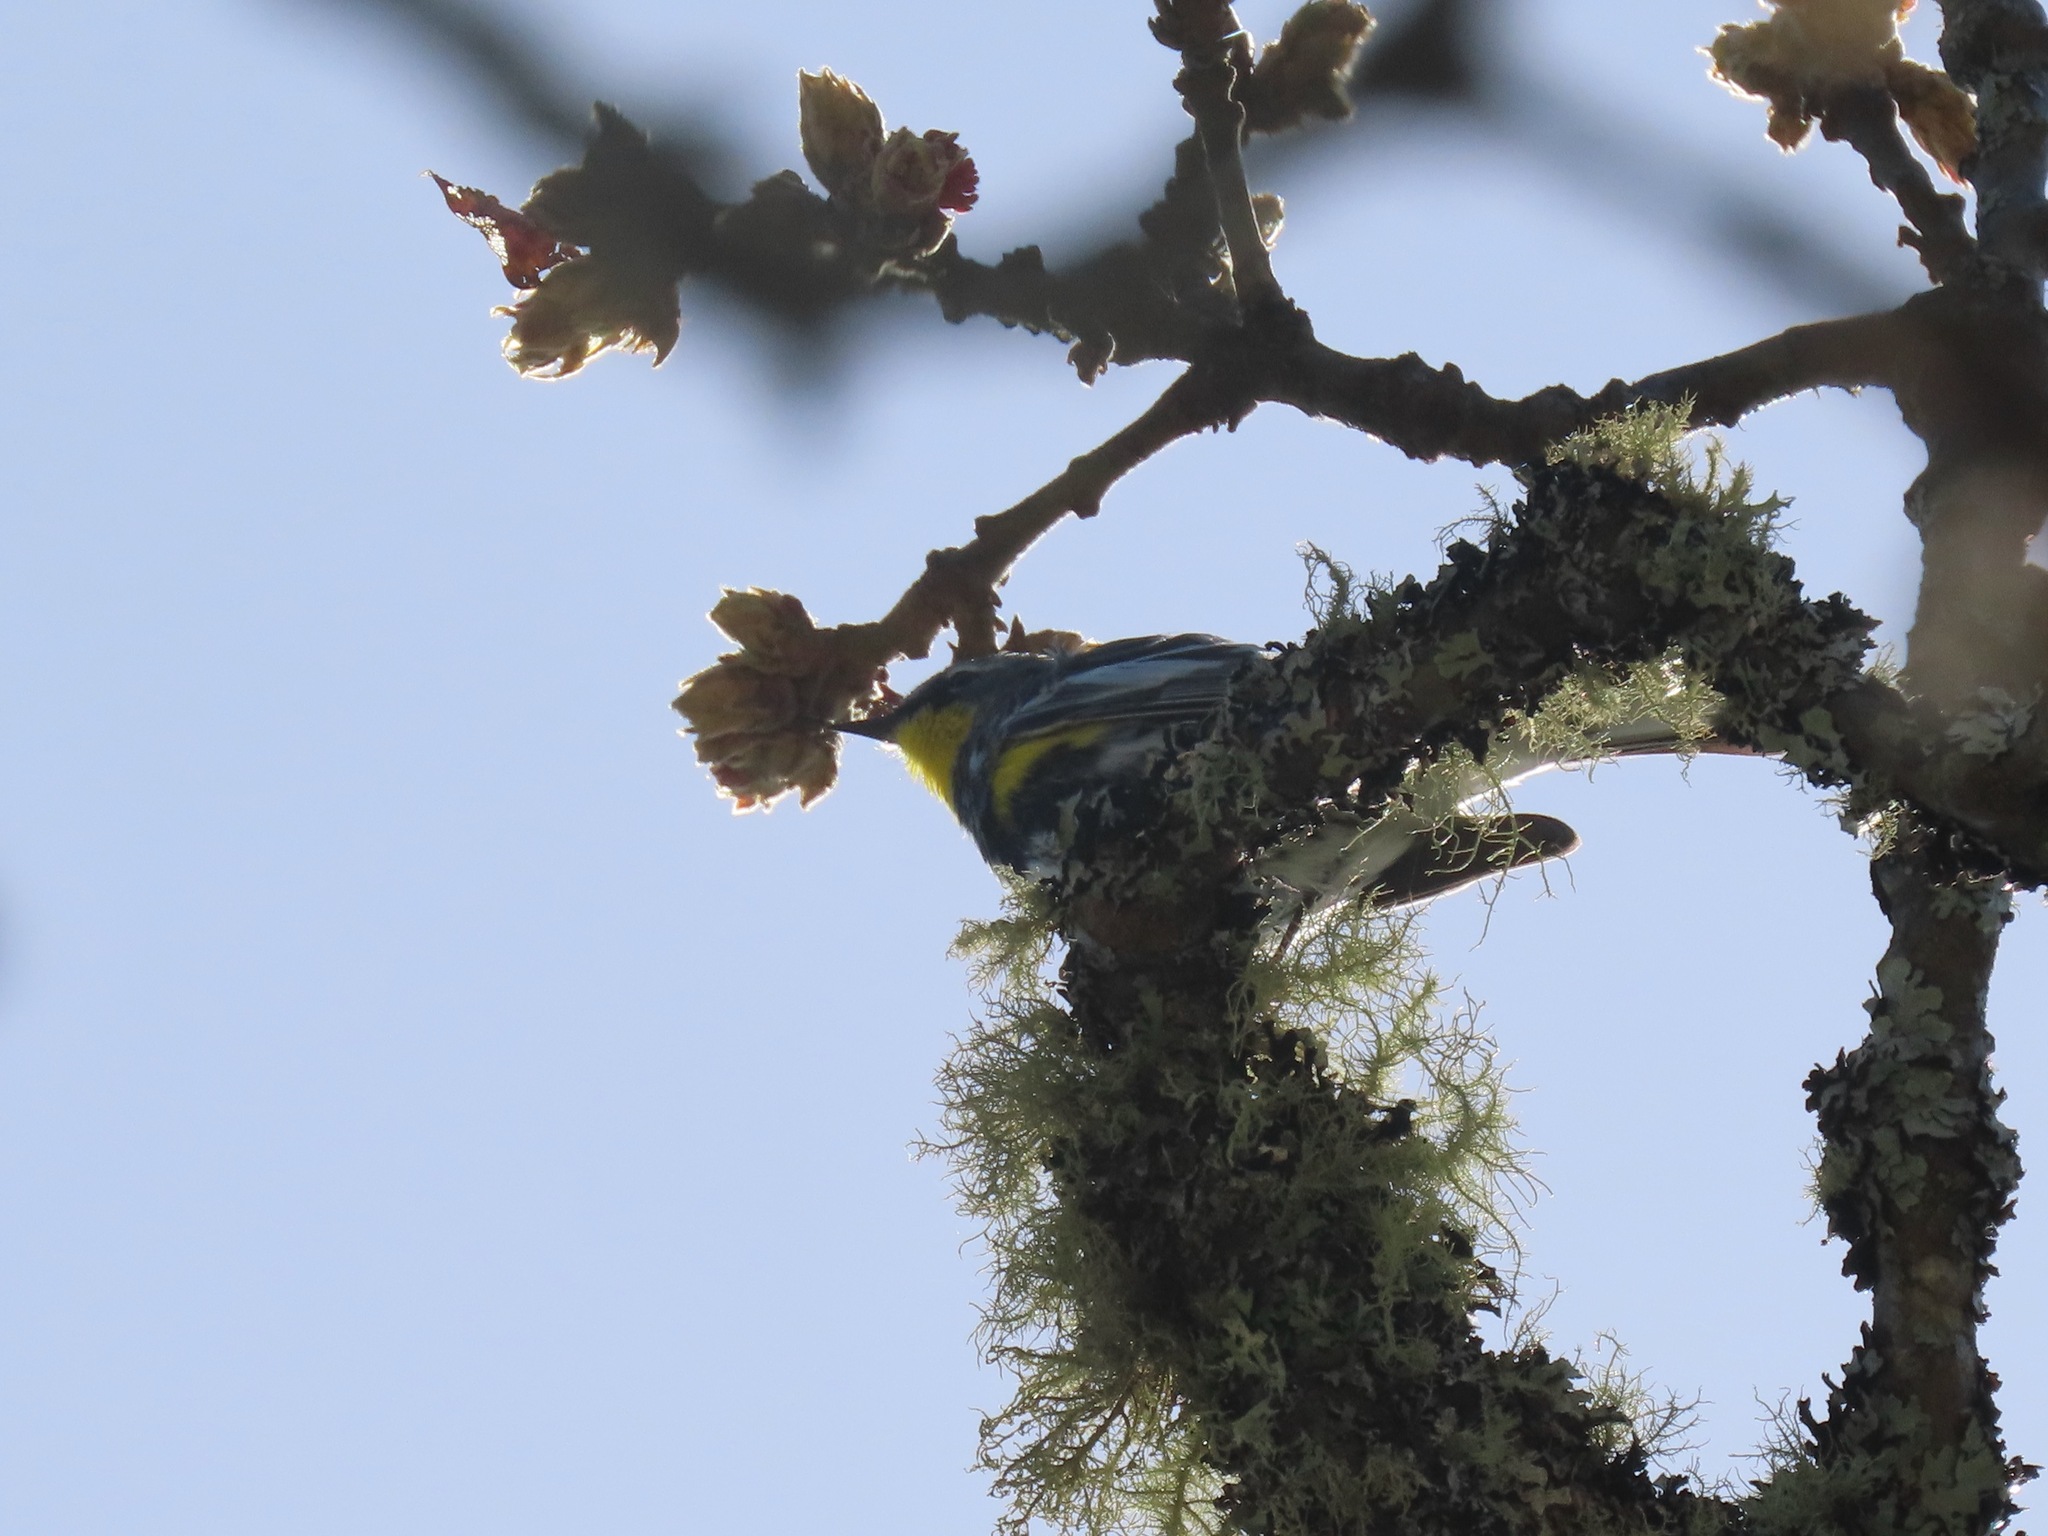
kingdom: Animalia
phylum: Chordata
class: Aves
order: Passeriformes
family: Parulidae
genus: Setophaga
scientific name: Setophaga coronata
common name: Myrtle warbler
